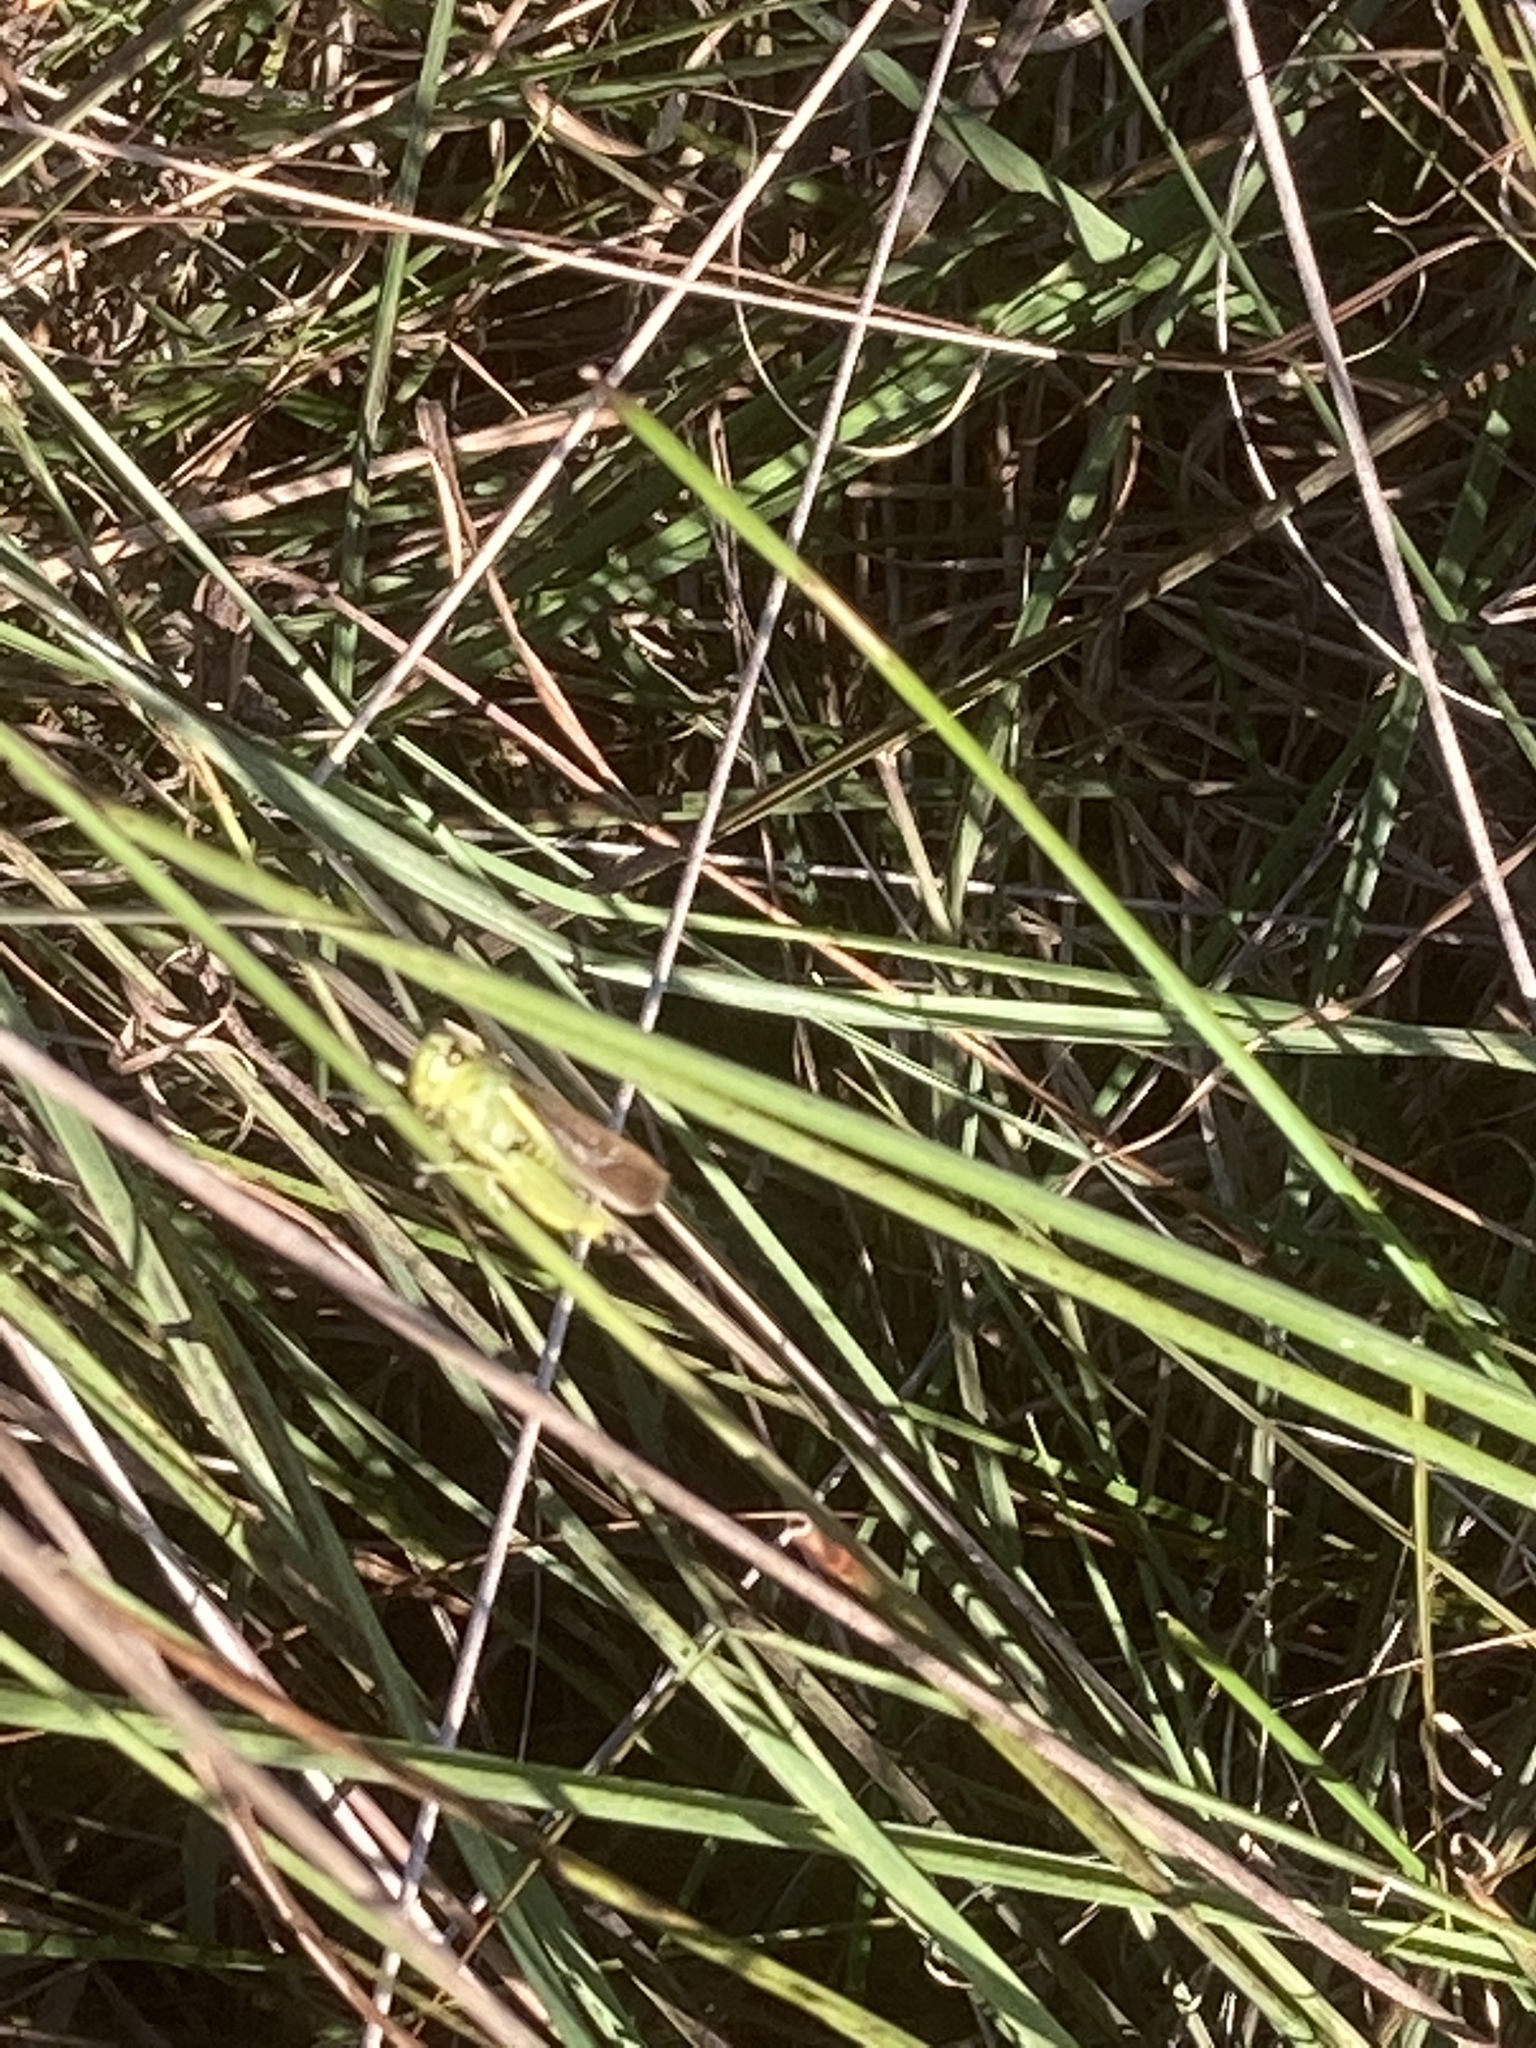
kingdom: Animalia
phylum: Arthropoda
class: Insecta
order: Orthoptera
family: Acrididae
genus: Stethophyma
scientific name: Stethophyma grossum
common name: Large marsh grasshopper
